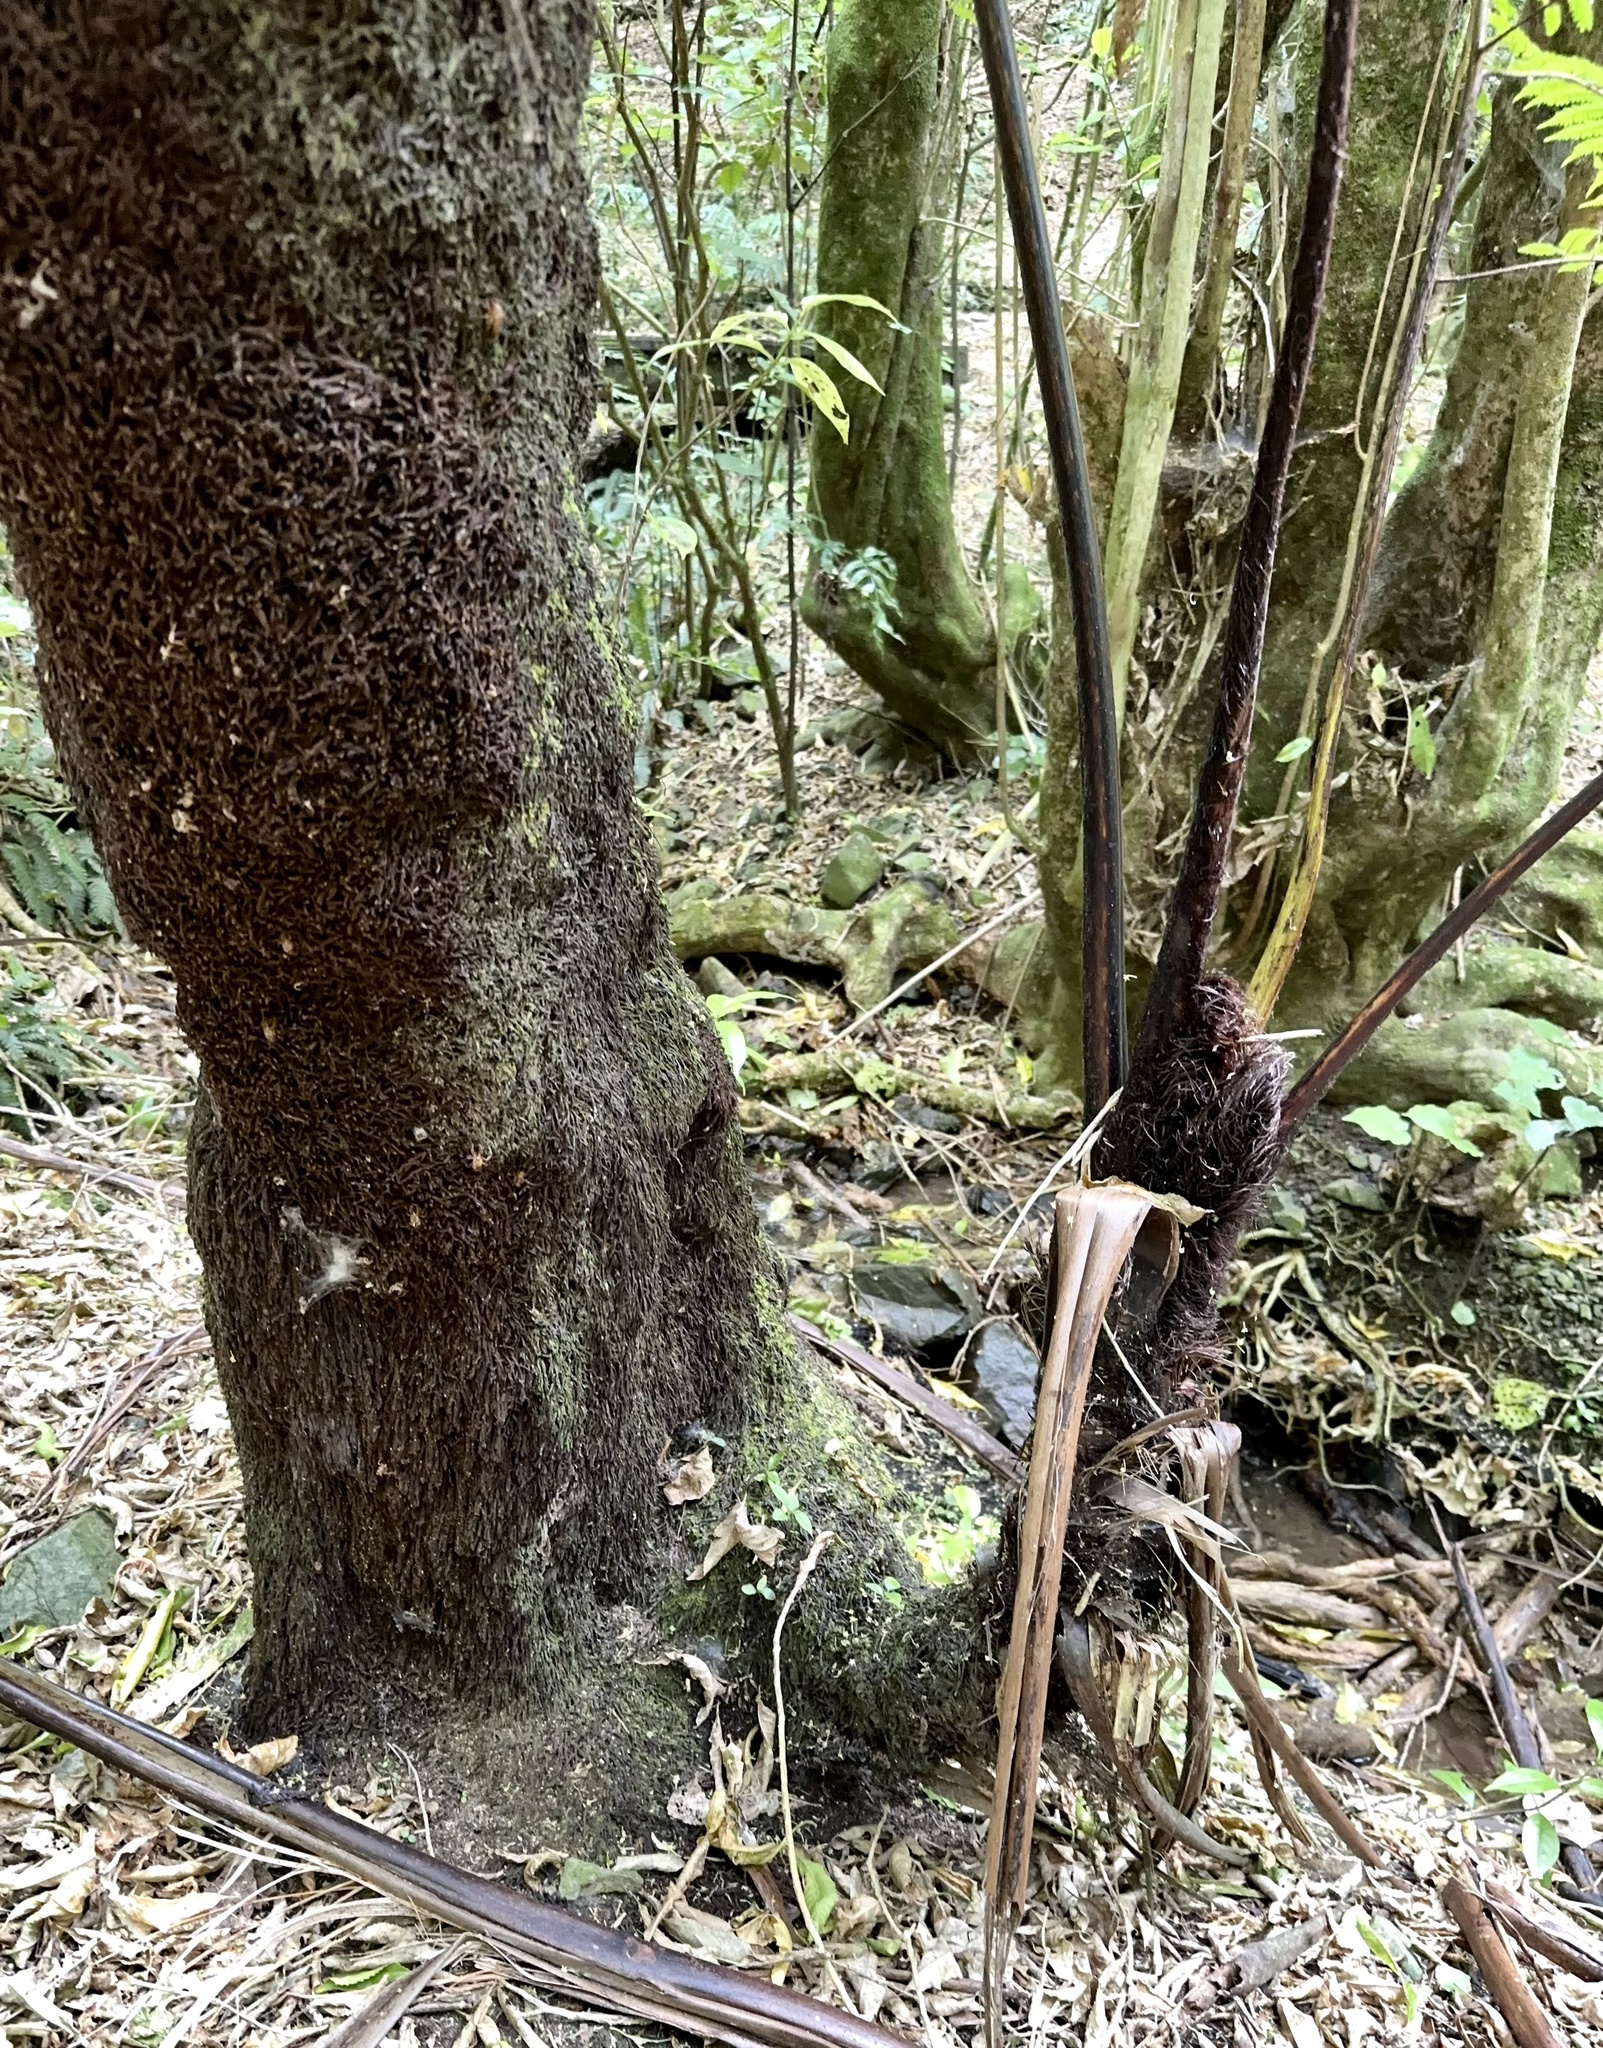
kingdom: Plantae
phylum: Tracheophyta
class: Polypodiopsida
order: Cyatheales
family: Cyatheaceae
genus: Sphaeropteris
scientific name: Sphaeropteris medullaris
